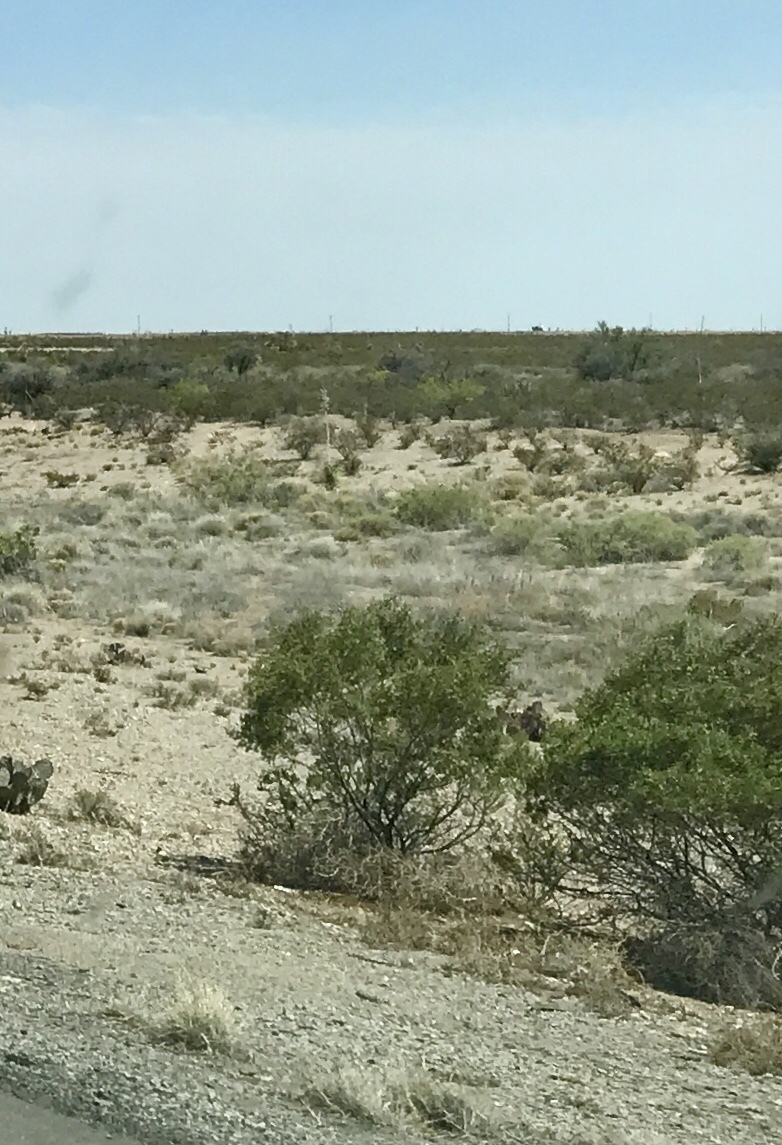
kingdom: Plantae
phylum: Tracheophyta
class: Magnoliopsida
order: Zygophyllales
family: Zygophyllaceae
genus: Larrea
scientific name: Larrea tridentata
